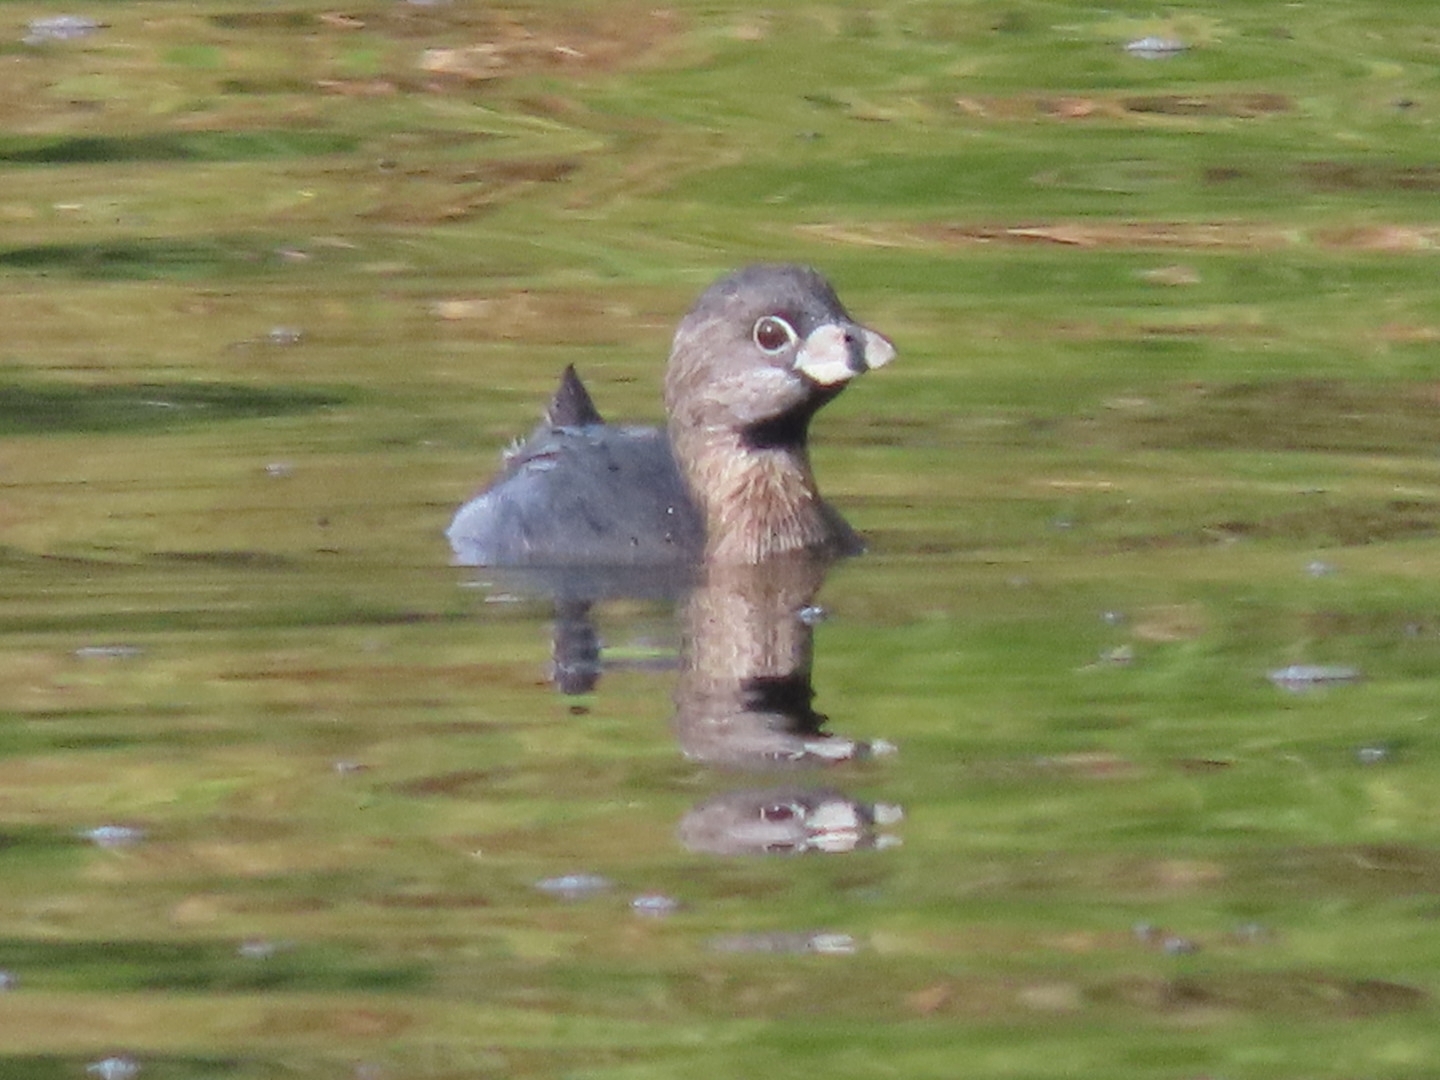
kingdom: Animalia
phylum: Chordata
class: Aves
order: Podicipediformes
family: Podicipedidae
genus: Podilymbus
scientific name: Podilymbus podiceps
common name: Pied-billed grebe
